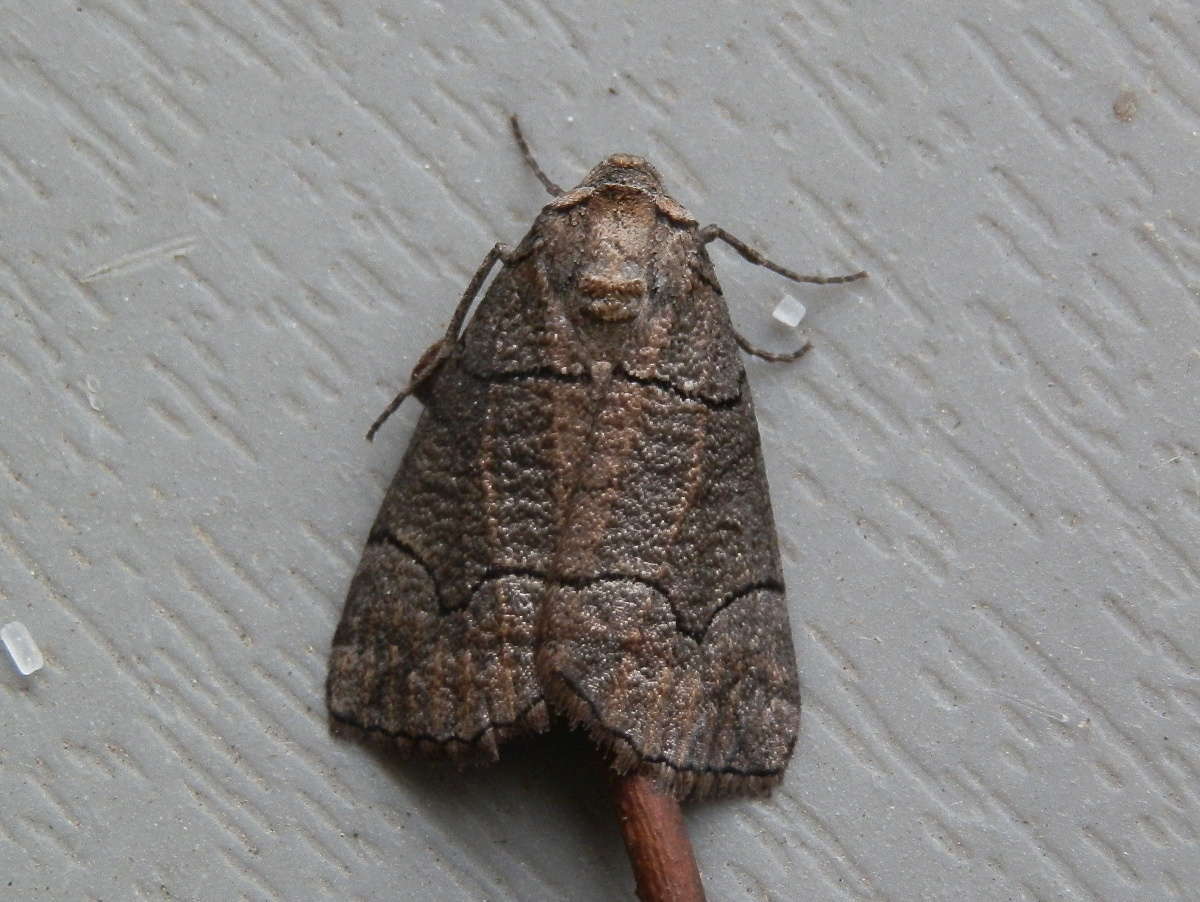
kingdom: Animalia
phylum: Arthropoda
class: Insecta
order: Lepidoptera
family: Geometridae
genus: Dysbatus
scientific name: Dysbatus
